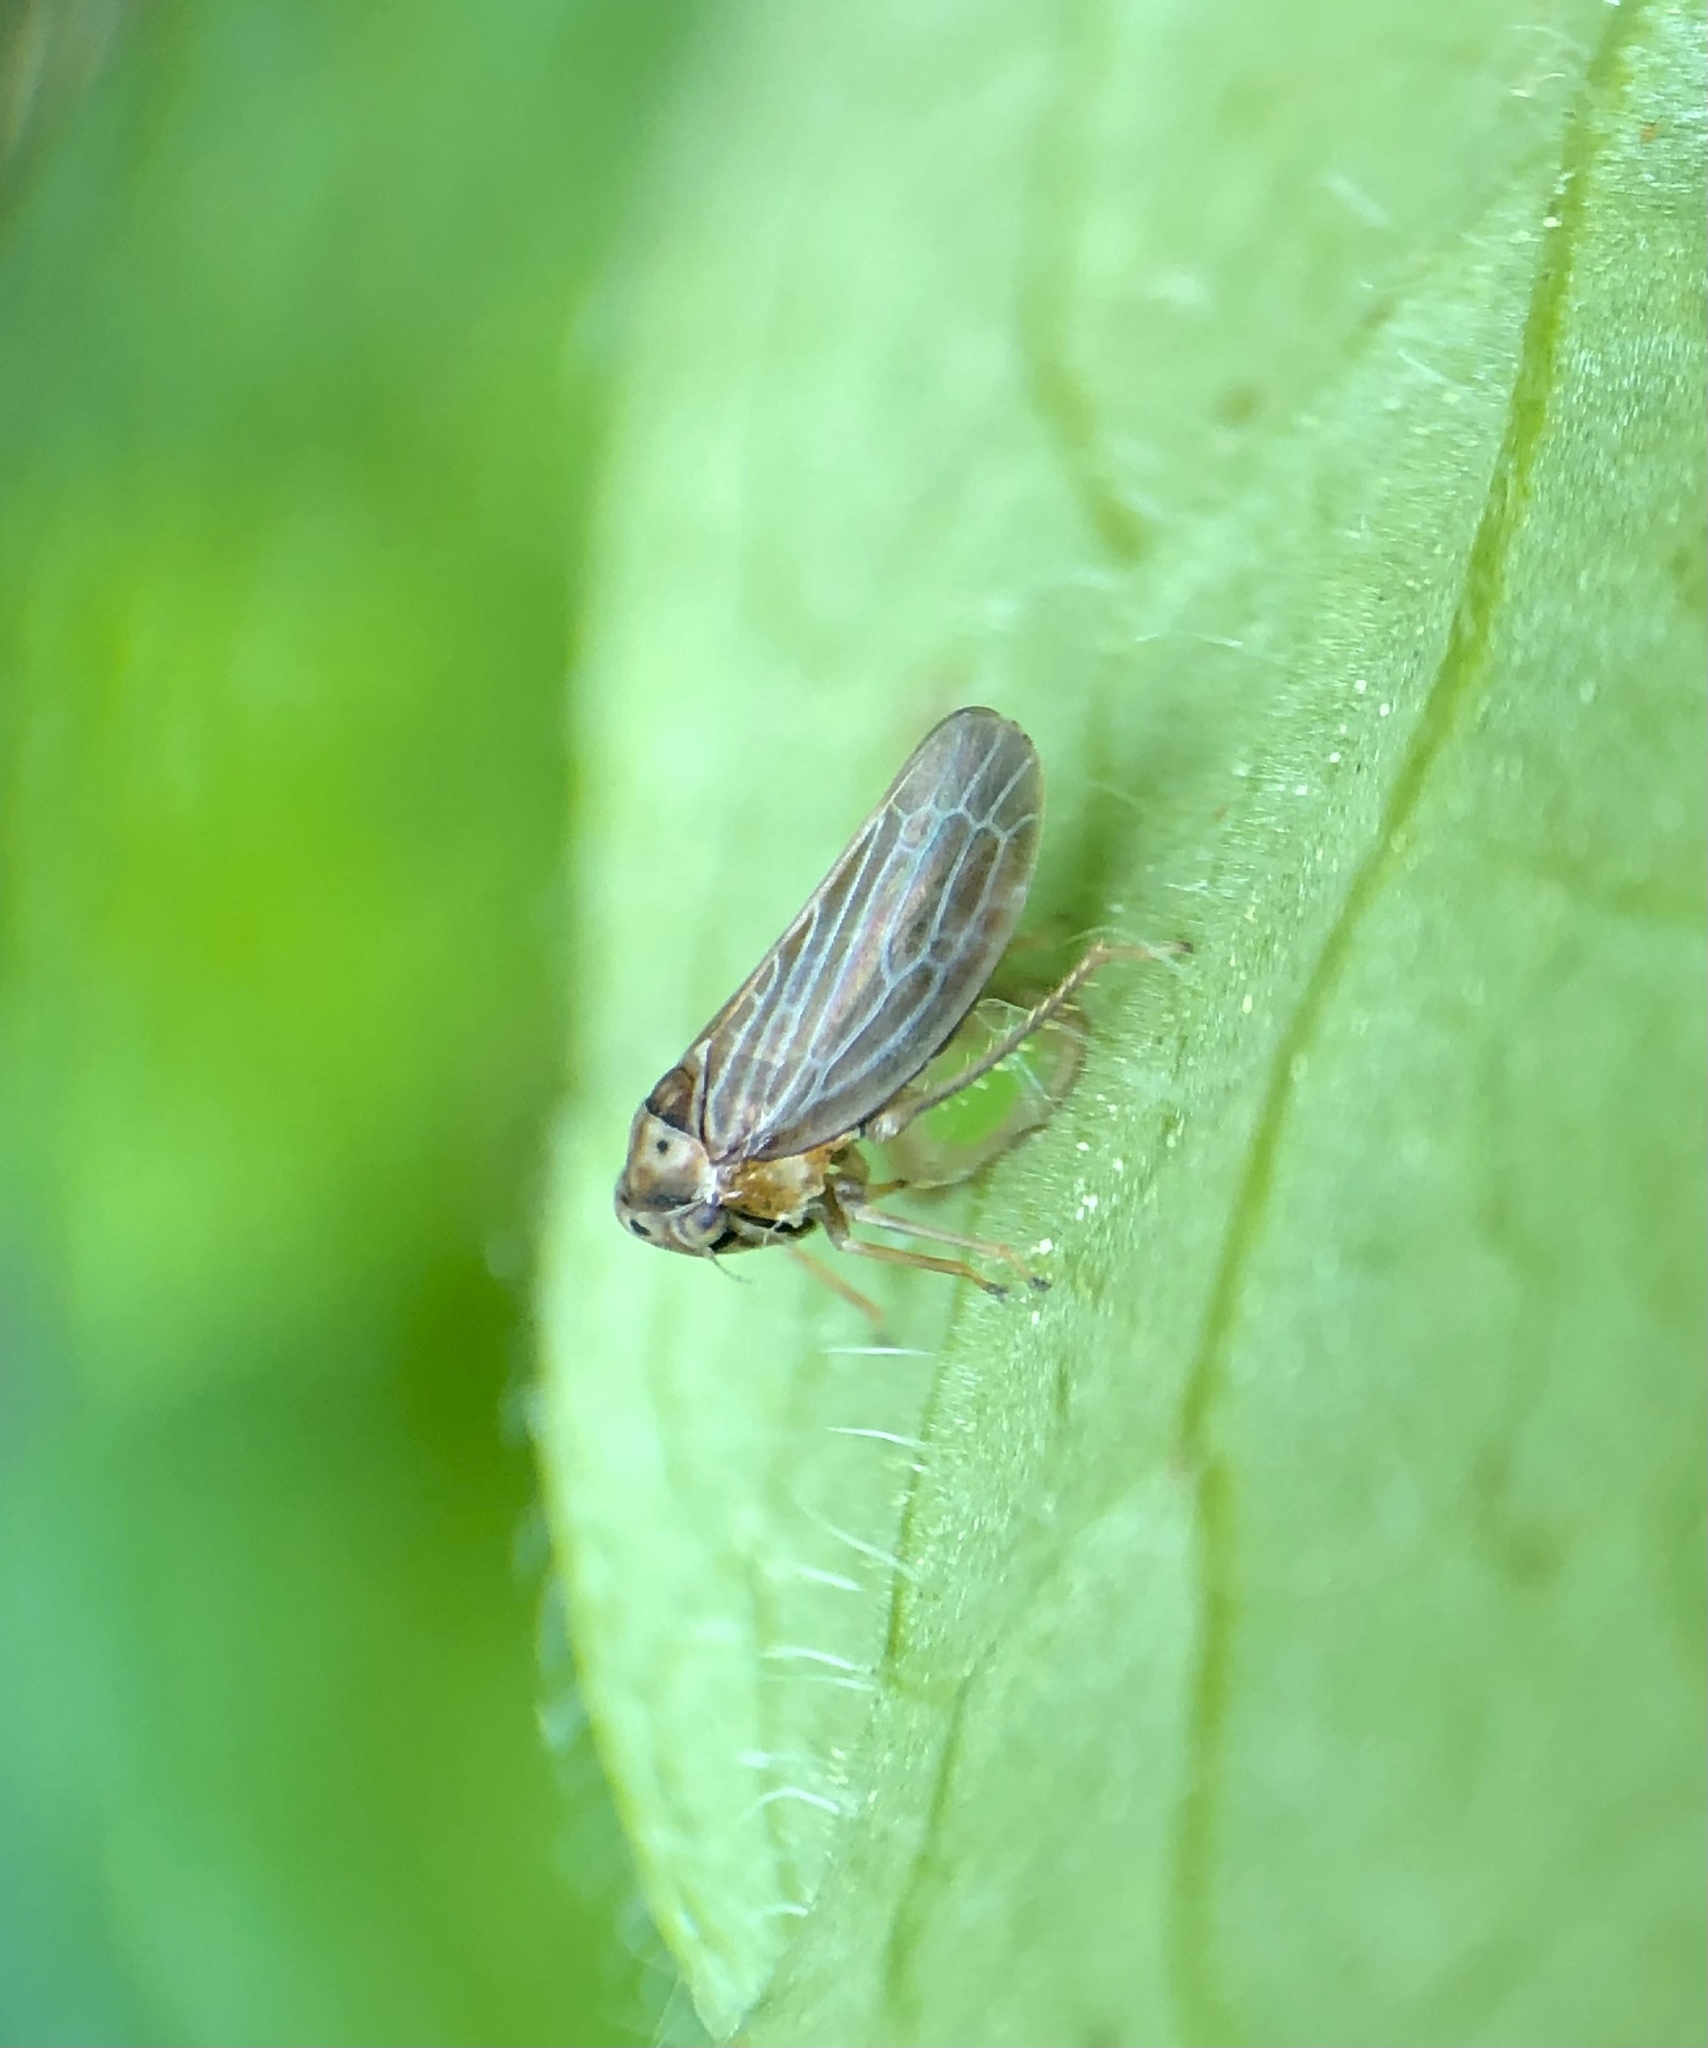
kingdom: Animalia
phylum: Arthropoda
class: Insecta
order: Hemiptera
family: Cicadellidae
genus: Agalliota
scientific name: Agalliota quadripunctata
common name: The four-spotted clover leafhopper
